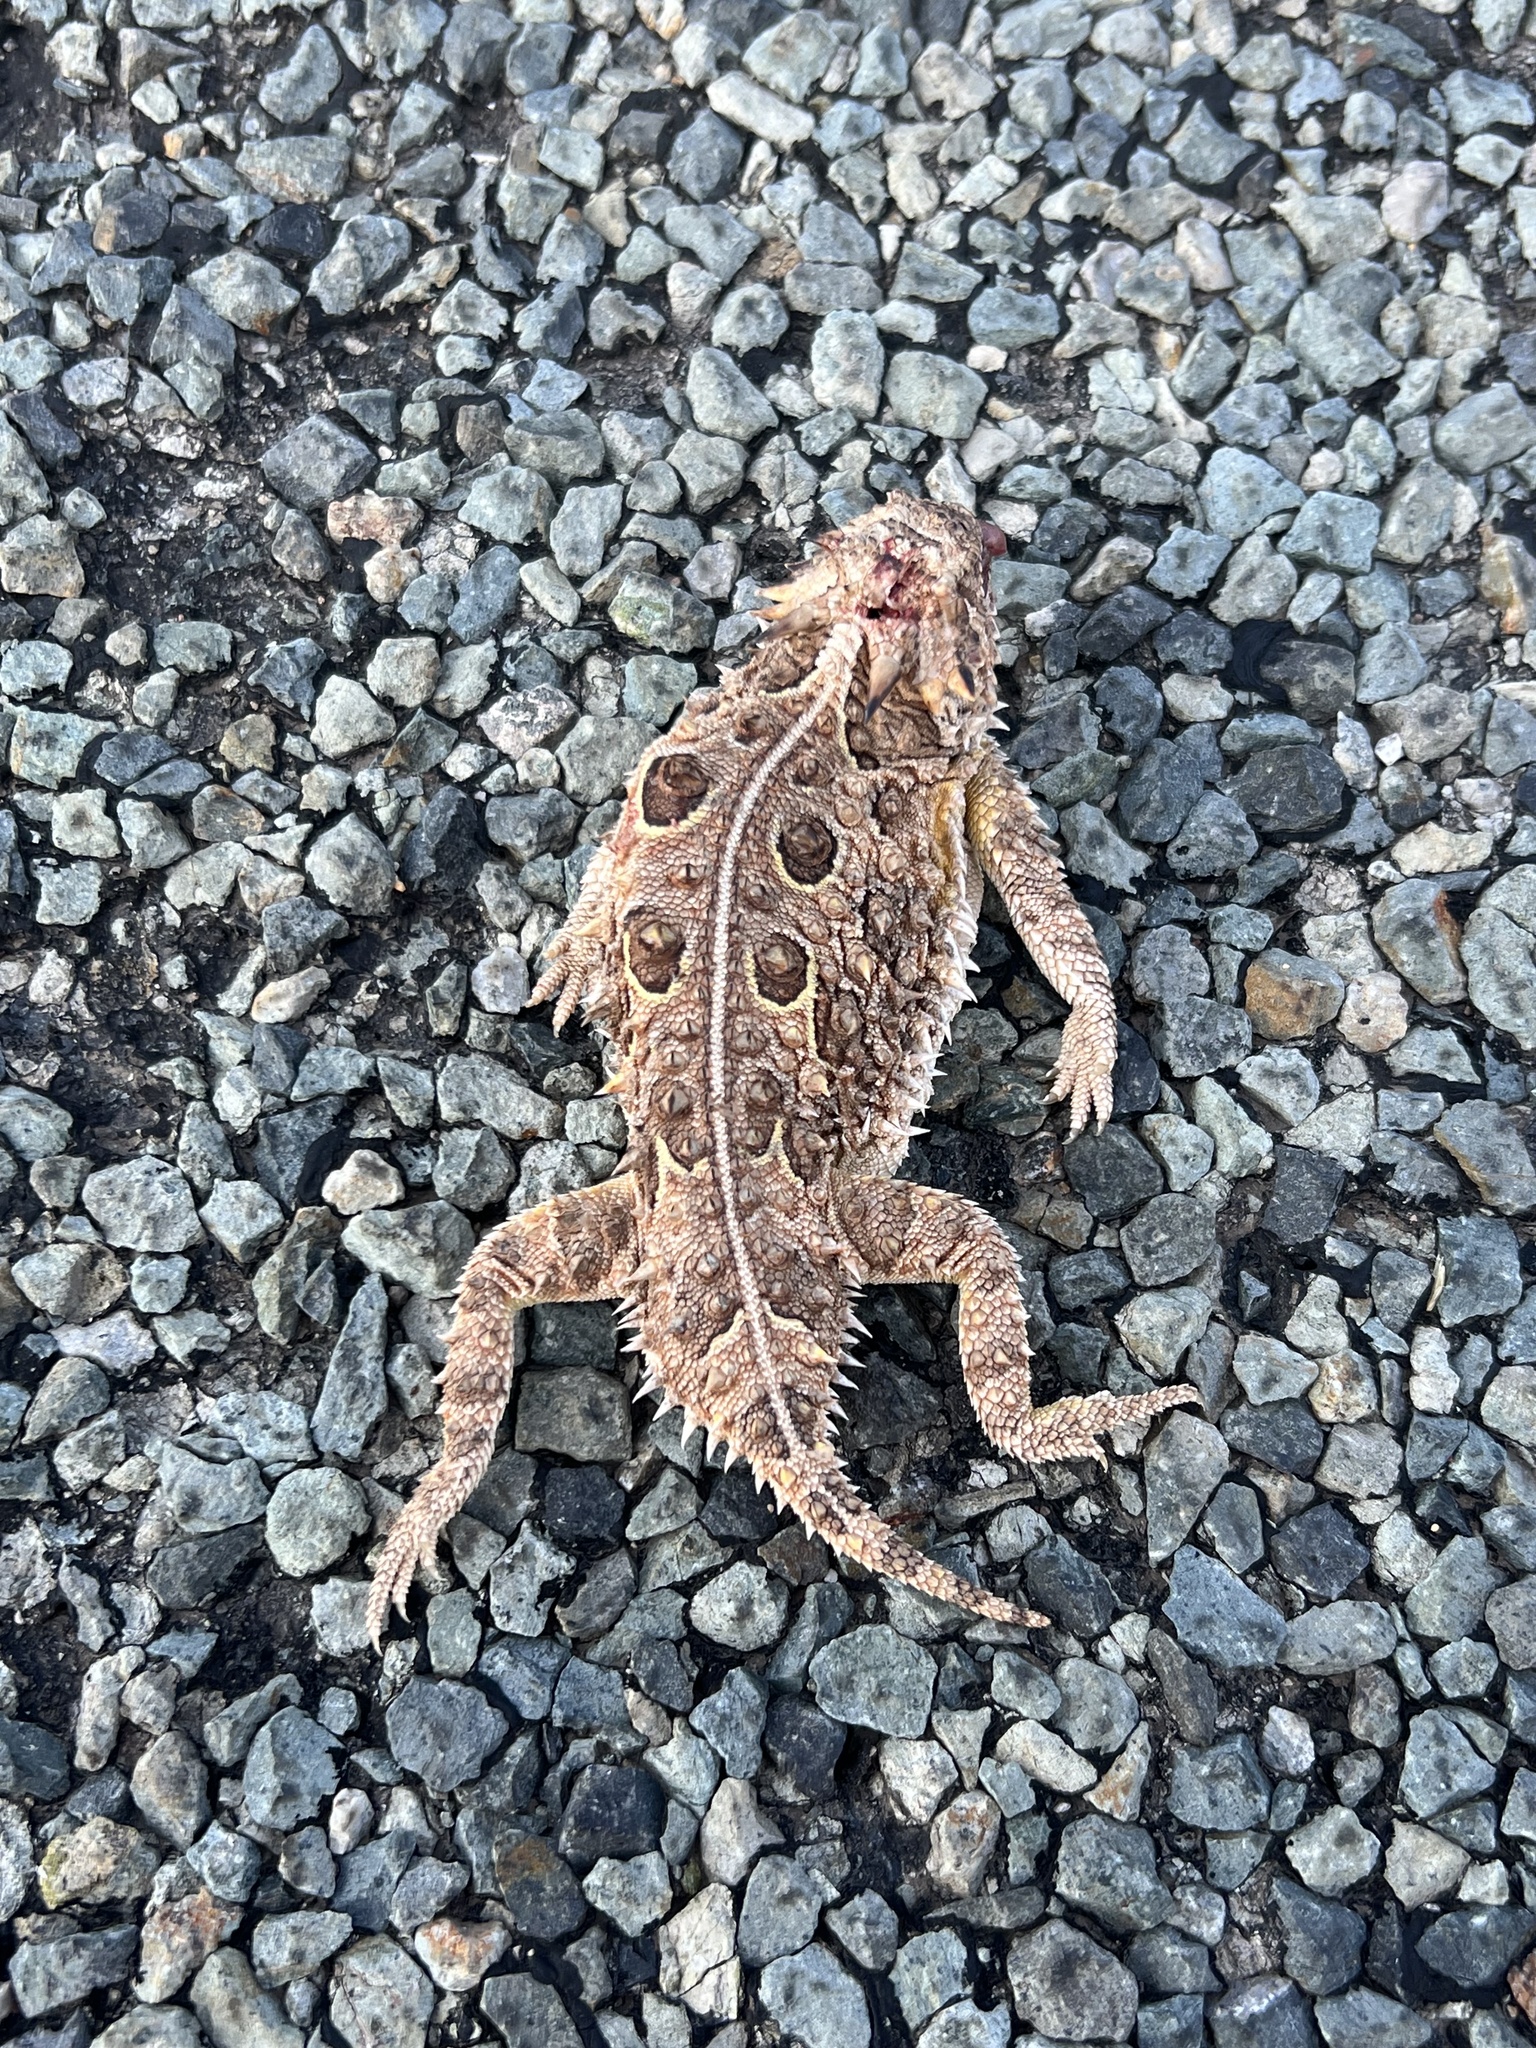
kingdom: Animalia
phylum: Chordata
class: Squamata
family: Phrynosomatidae
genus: Phrynosoma
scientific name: Phrynosoma cornutum
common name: Texas horned lizard
